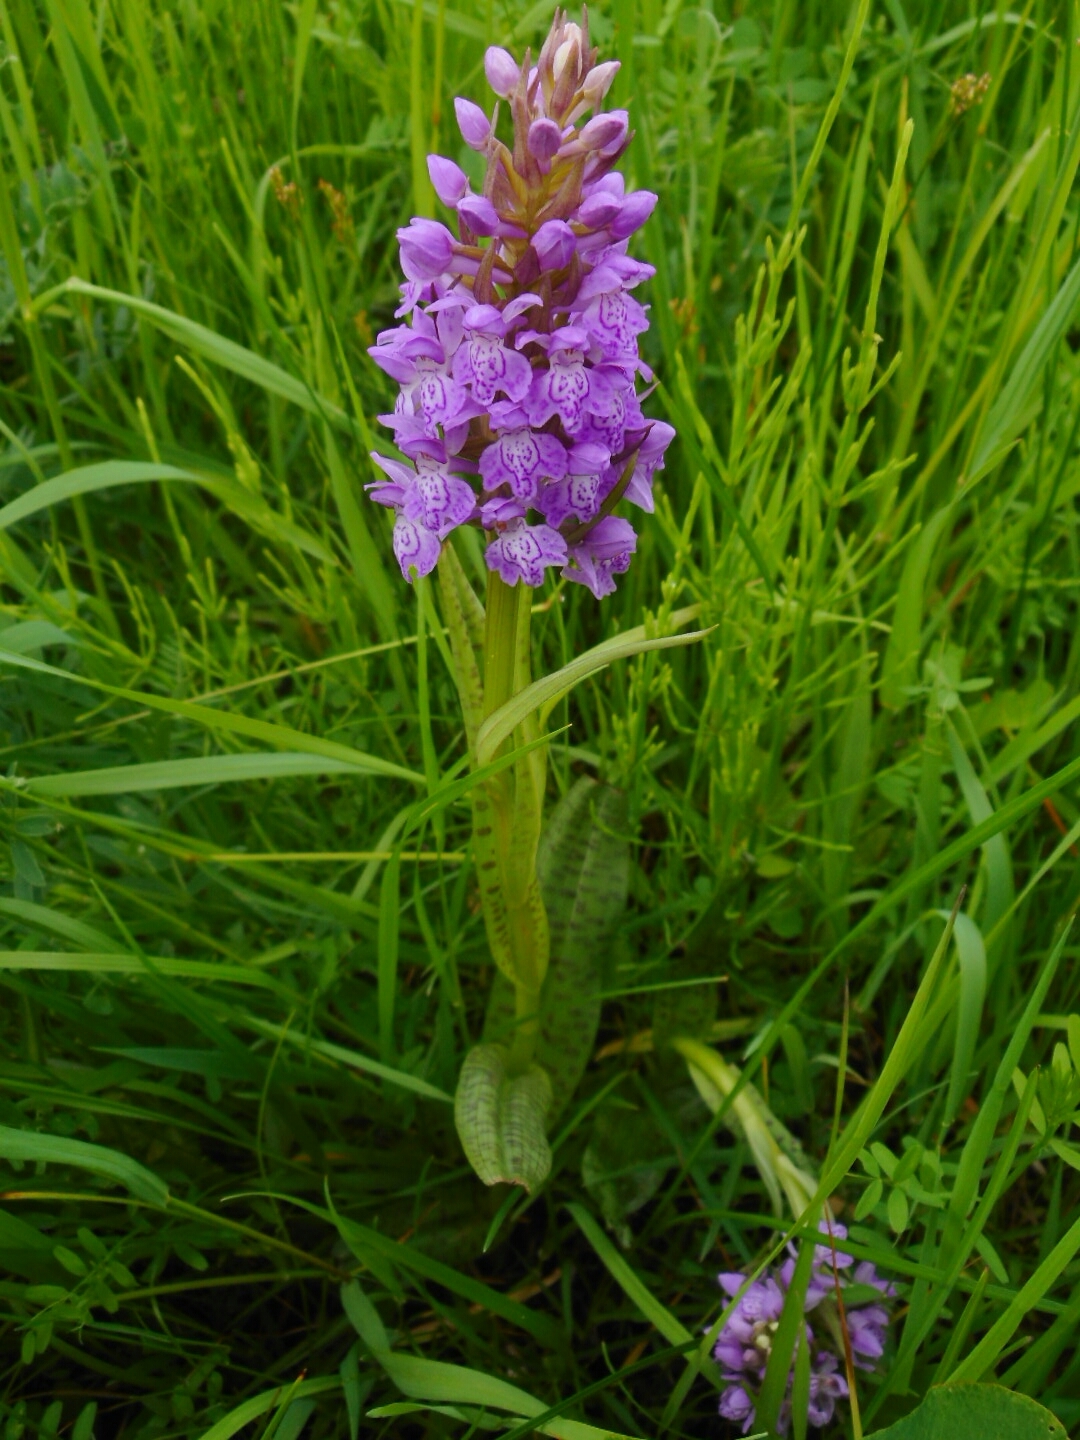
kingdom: Plantae
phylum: Tracheophyta
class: Liliopsida
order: Asparagales
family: Orchidaceae
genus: Dactylorhiza
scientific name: Dactylorhiza majalis
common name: Marsh orchid
